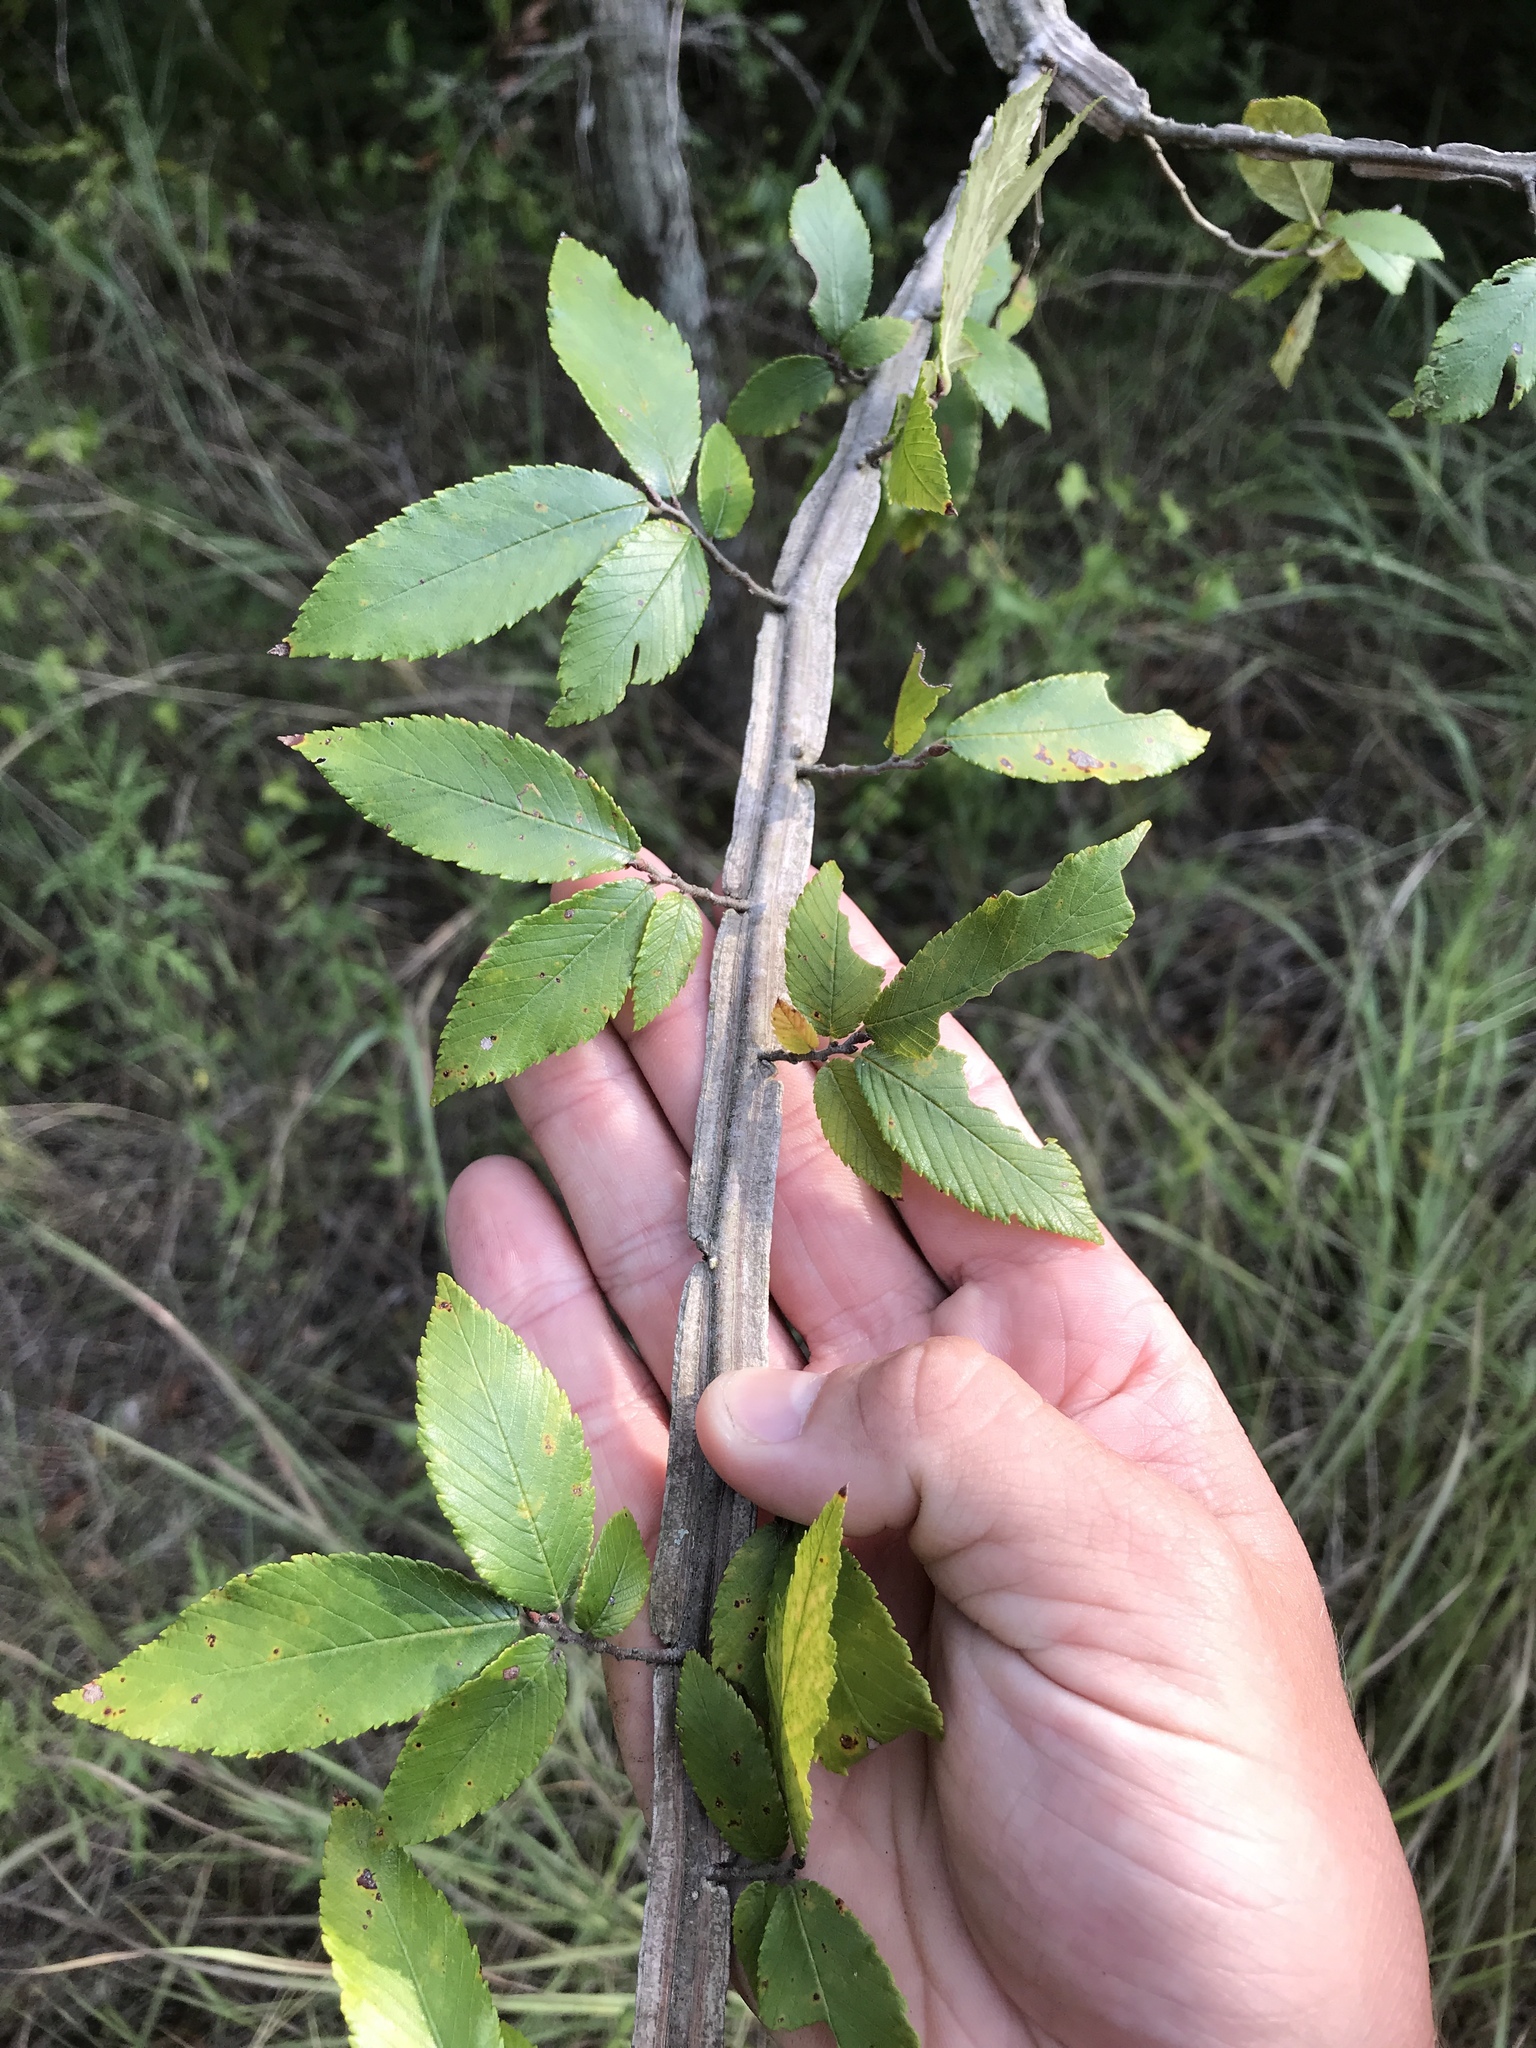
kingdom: Plantae
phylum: Tracheophyta
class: Magnoliopsida
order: Rosales
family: Ulmaceae
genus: Ulmus
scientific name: Ulmus alata
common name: Winged elm
